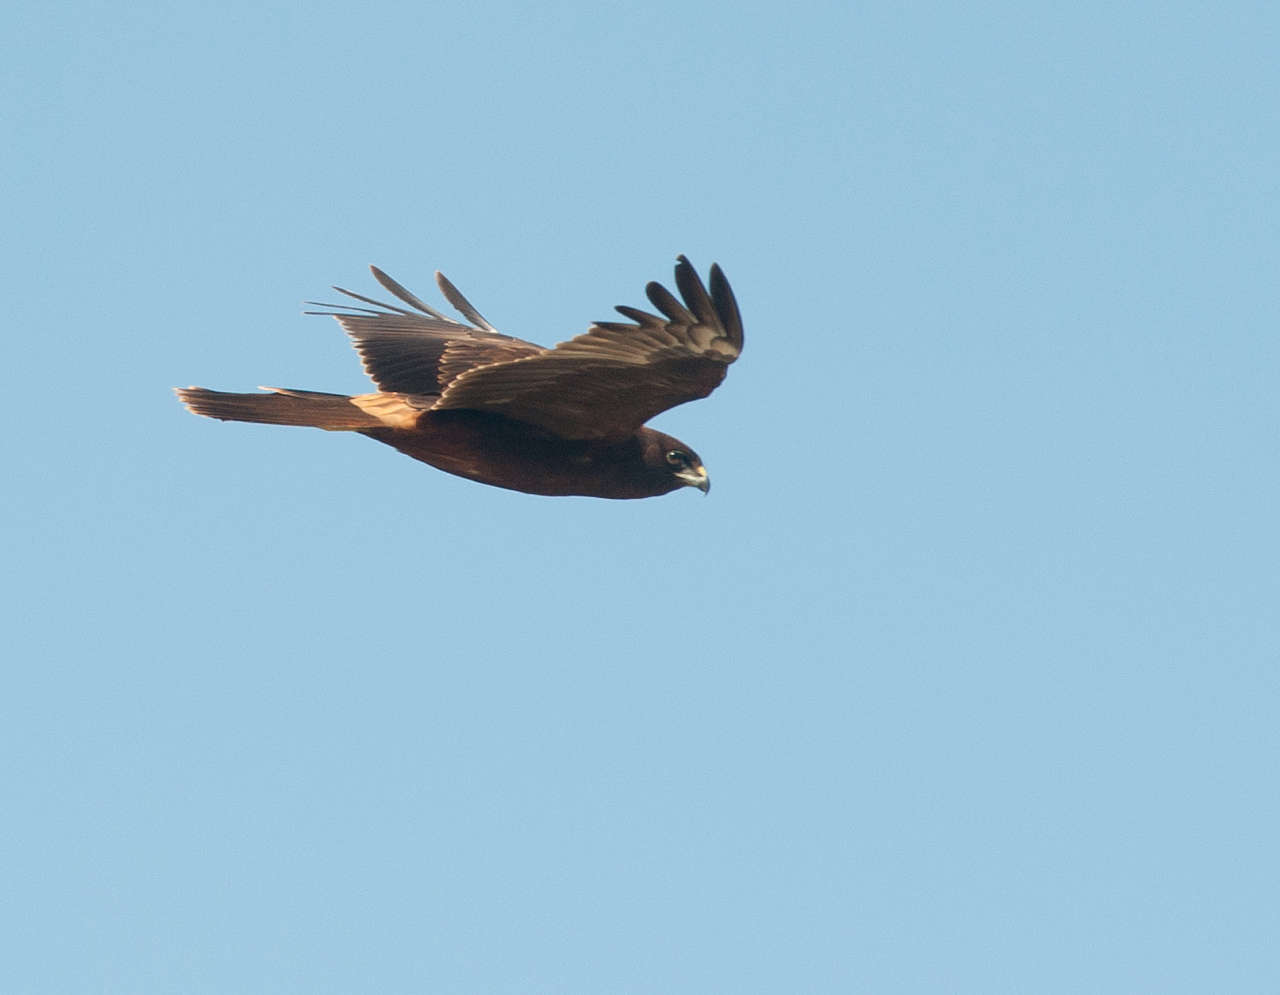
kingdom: Animalia
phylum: Chordata
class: Aves
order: Accipitriformes
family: Accipitridae
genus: Circus
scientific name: Circus approximans
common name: Swamp harrier
